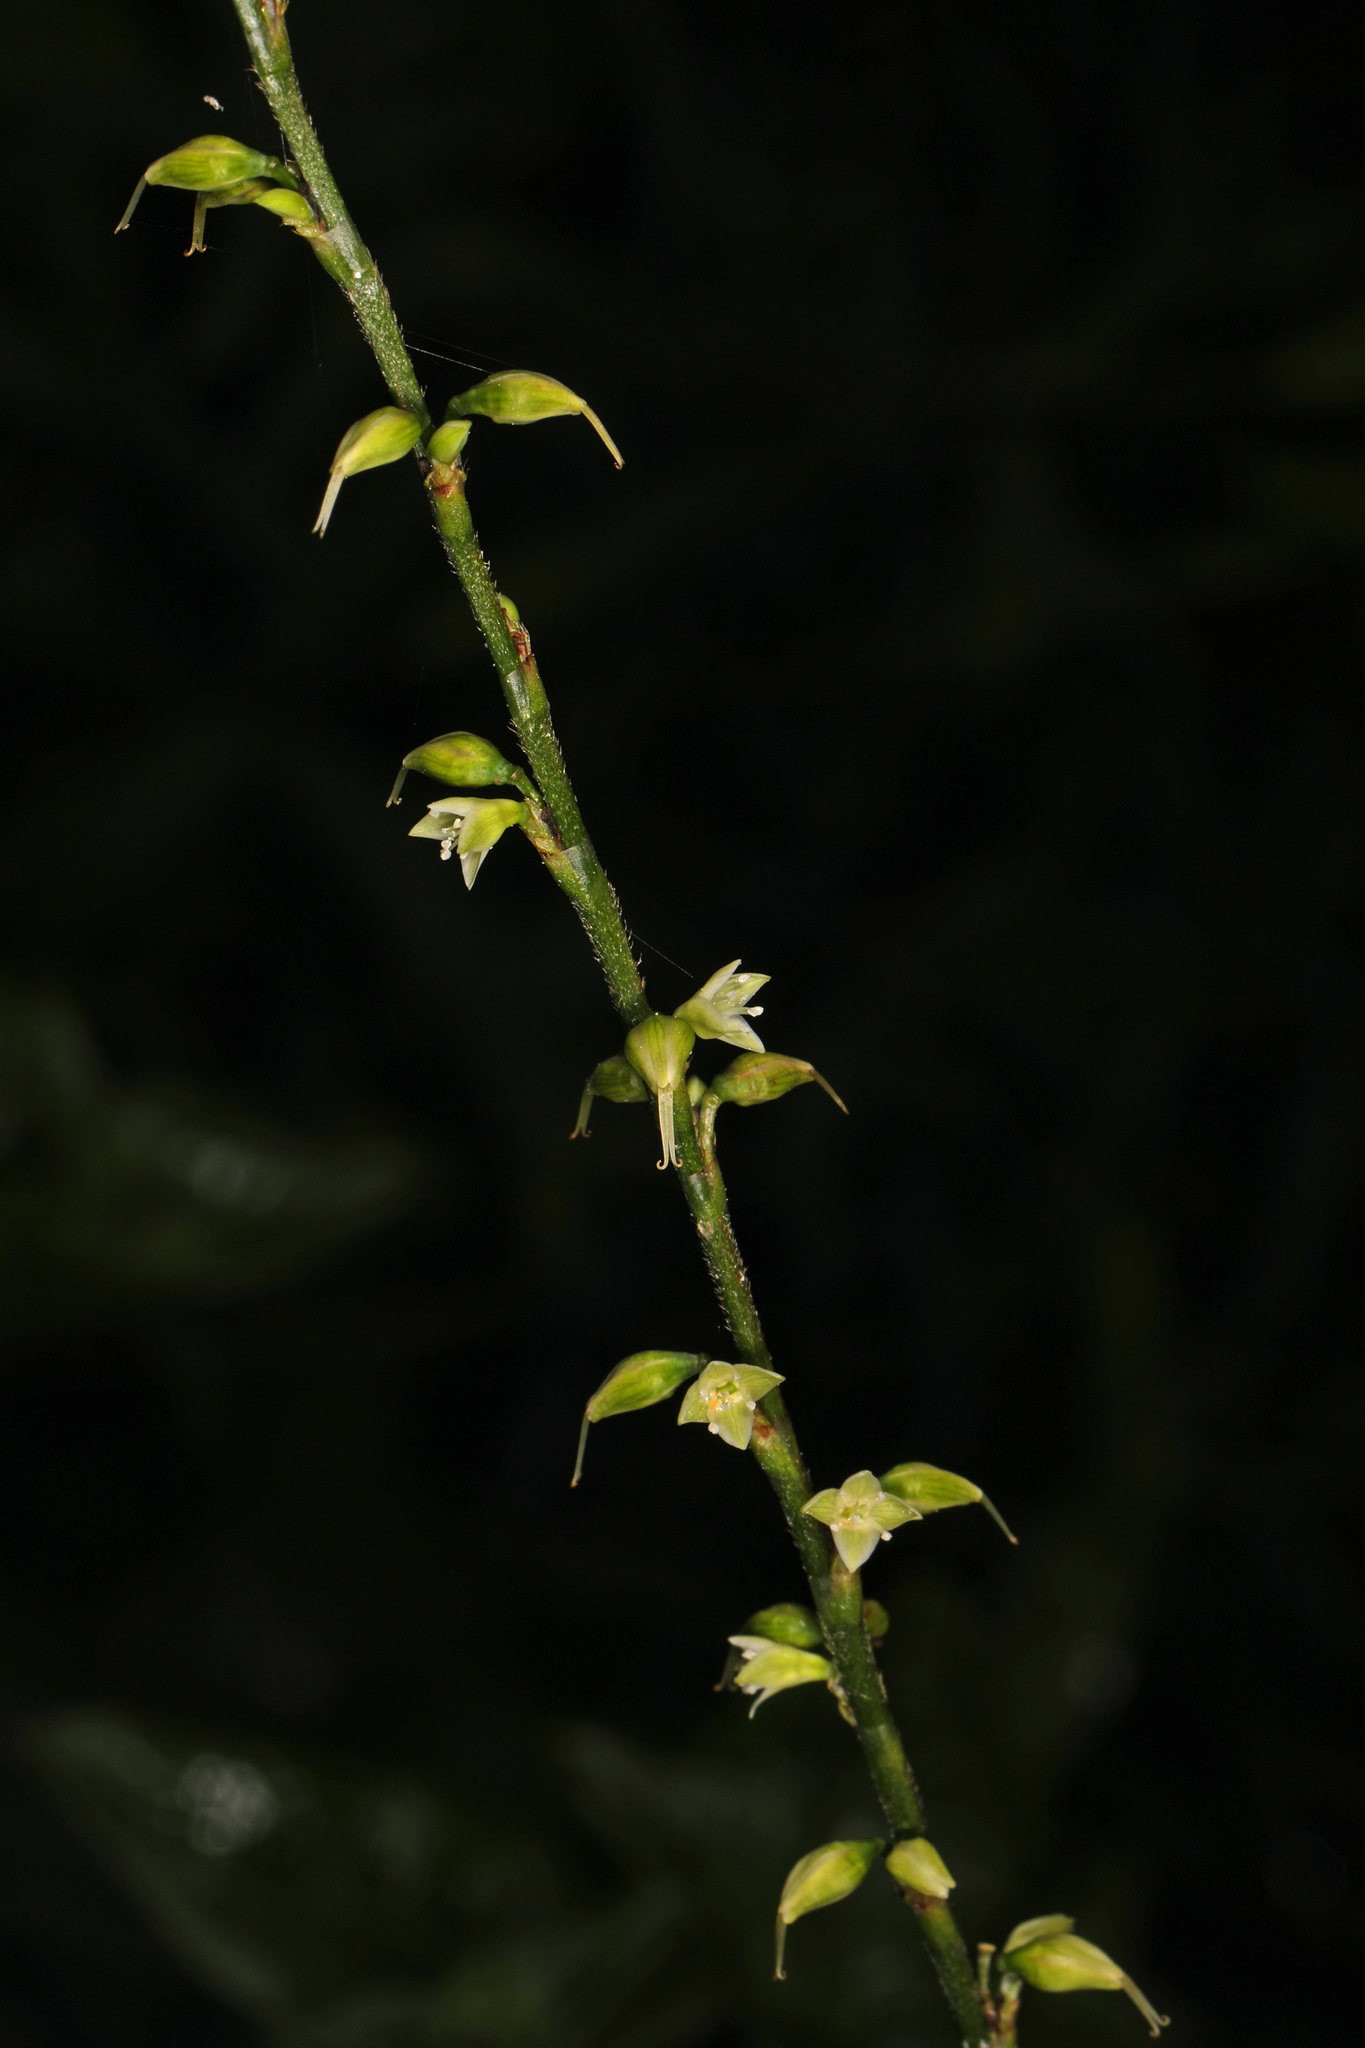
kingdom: Plantae
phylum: Tracheophyta
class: Magnoliopsida
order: Caryophyllales
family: Polygonaceae
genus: Persicaria
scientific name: Persicaria virginiana
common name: Jumpseed
